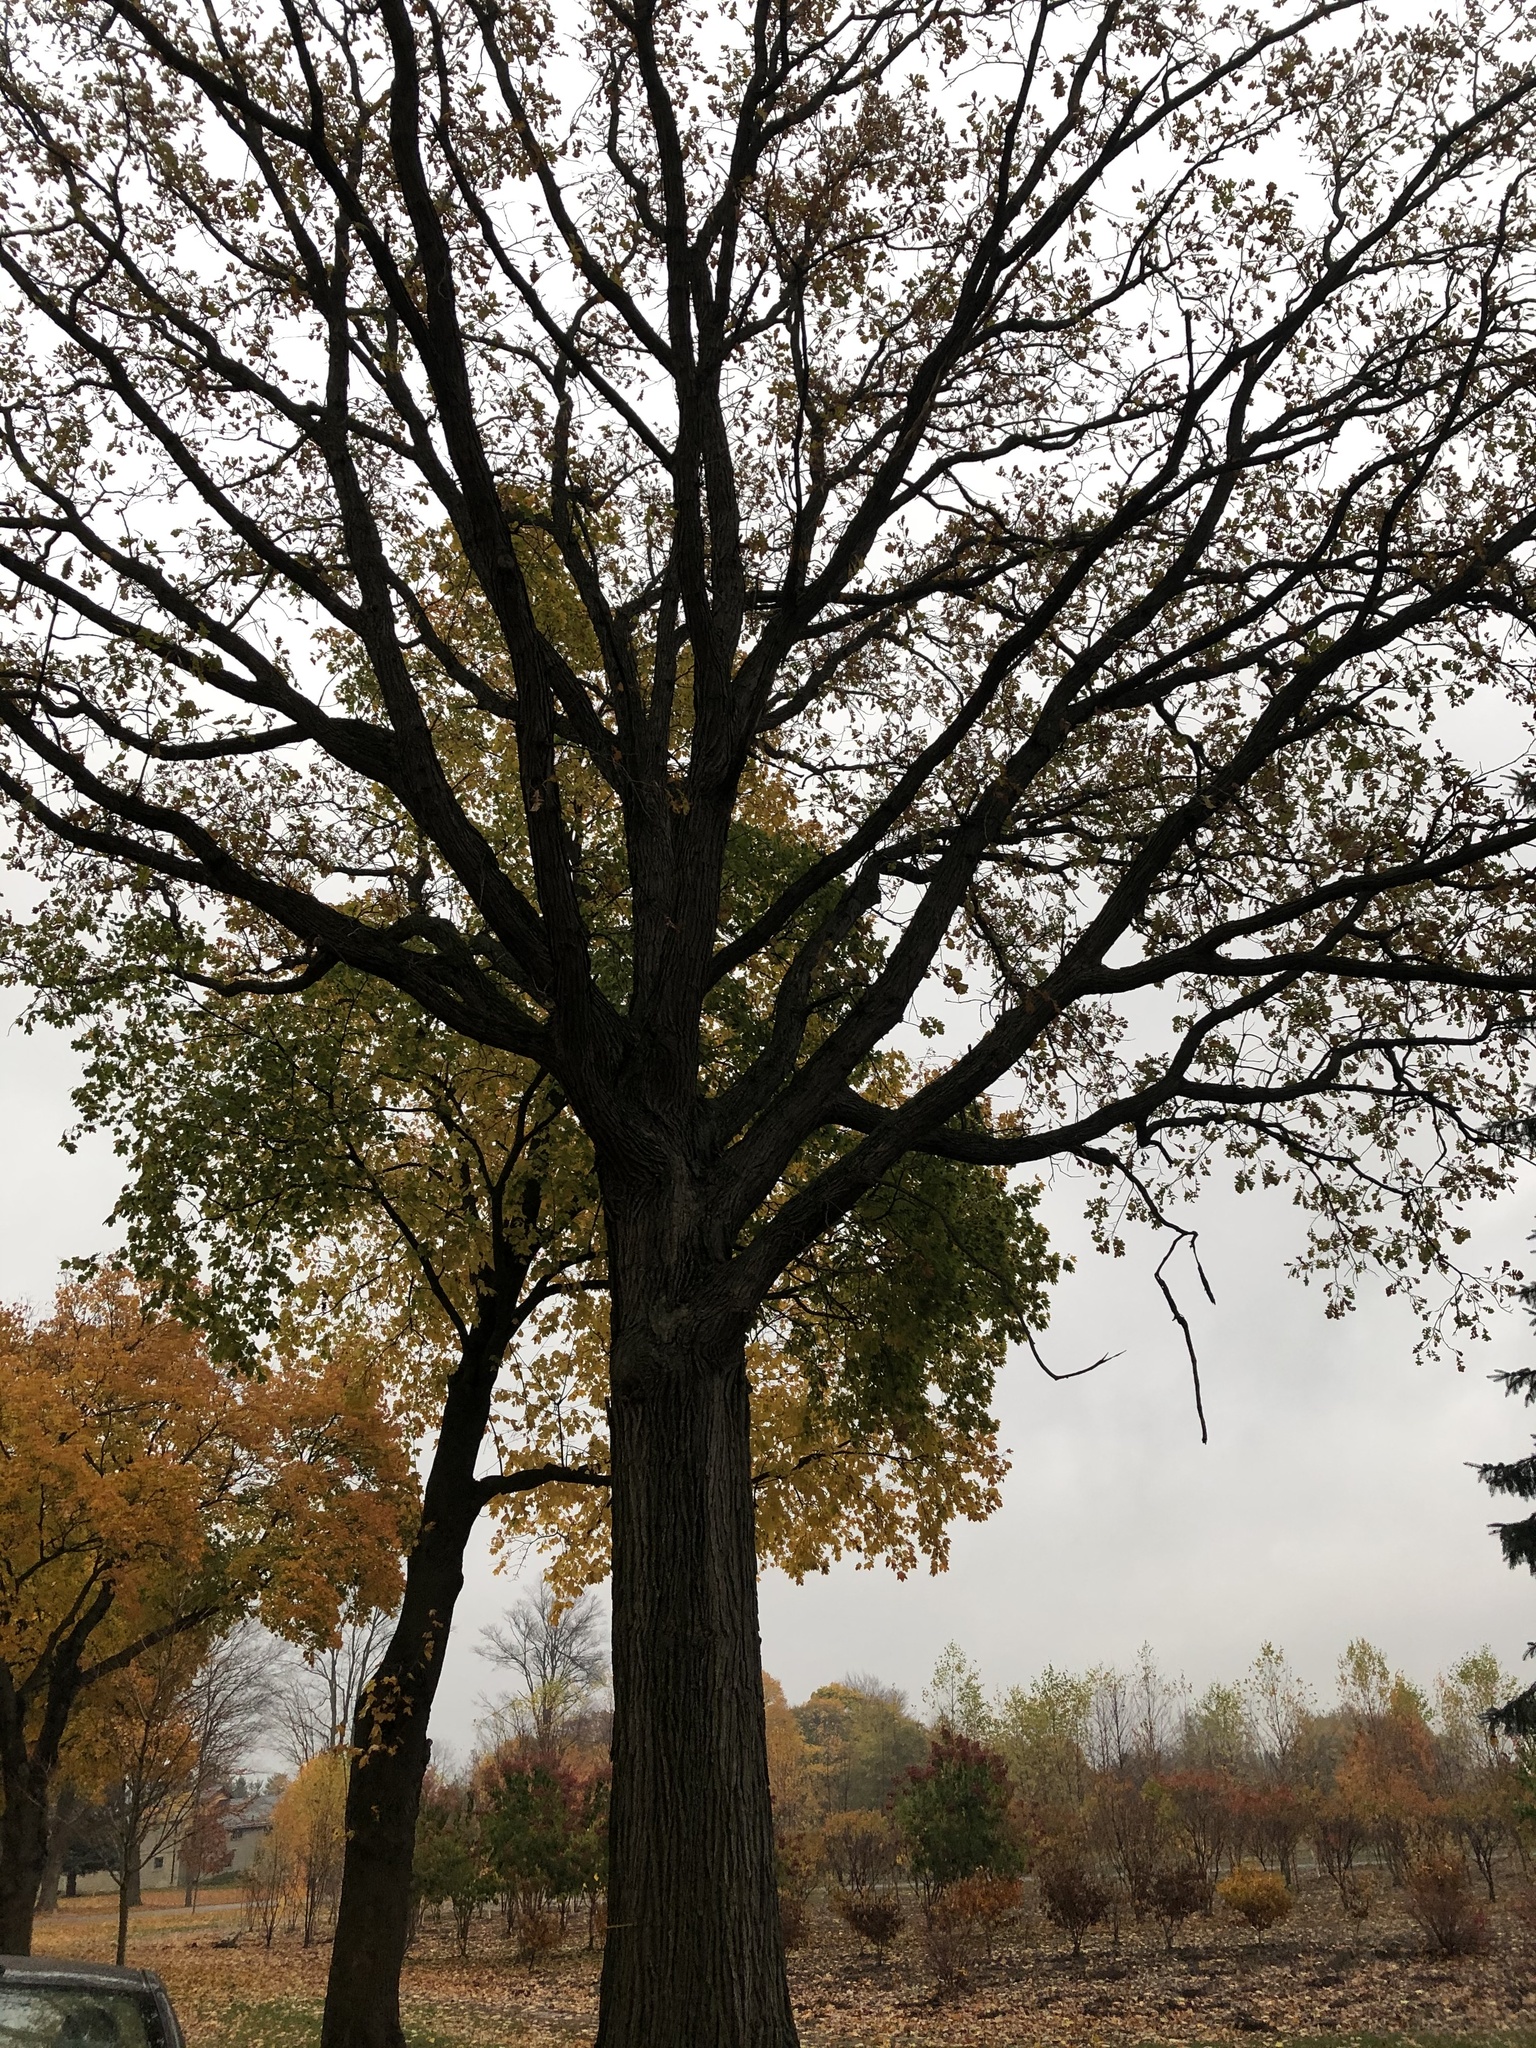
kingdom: Plantae
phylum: Tracheophyta
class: Magnoliopsida
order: Fagales
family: Fagaceae
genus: Quercus
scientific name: Quercus macrocarpa
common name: Bur oak
